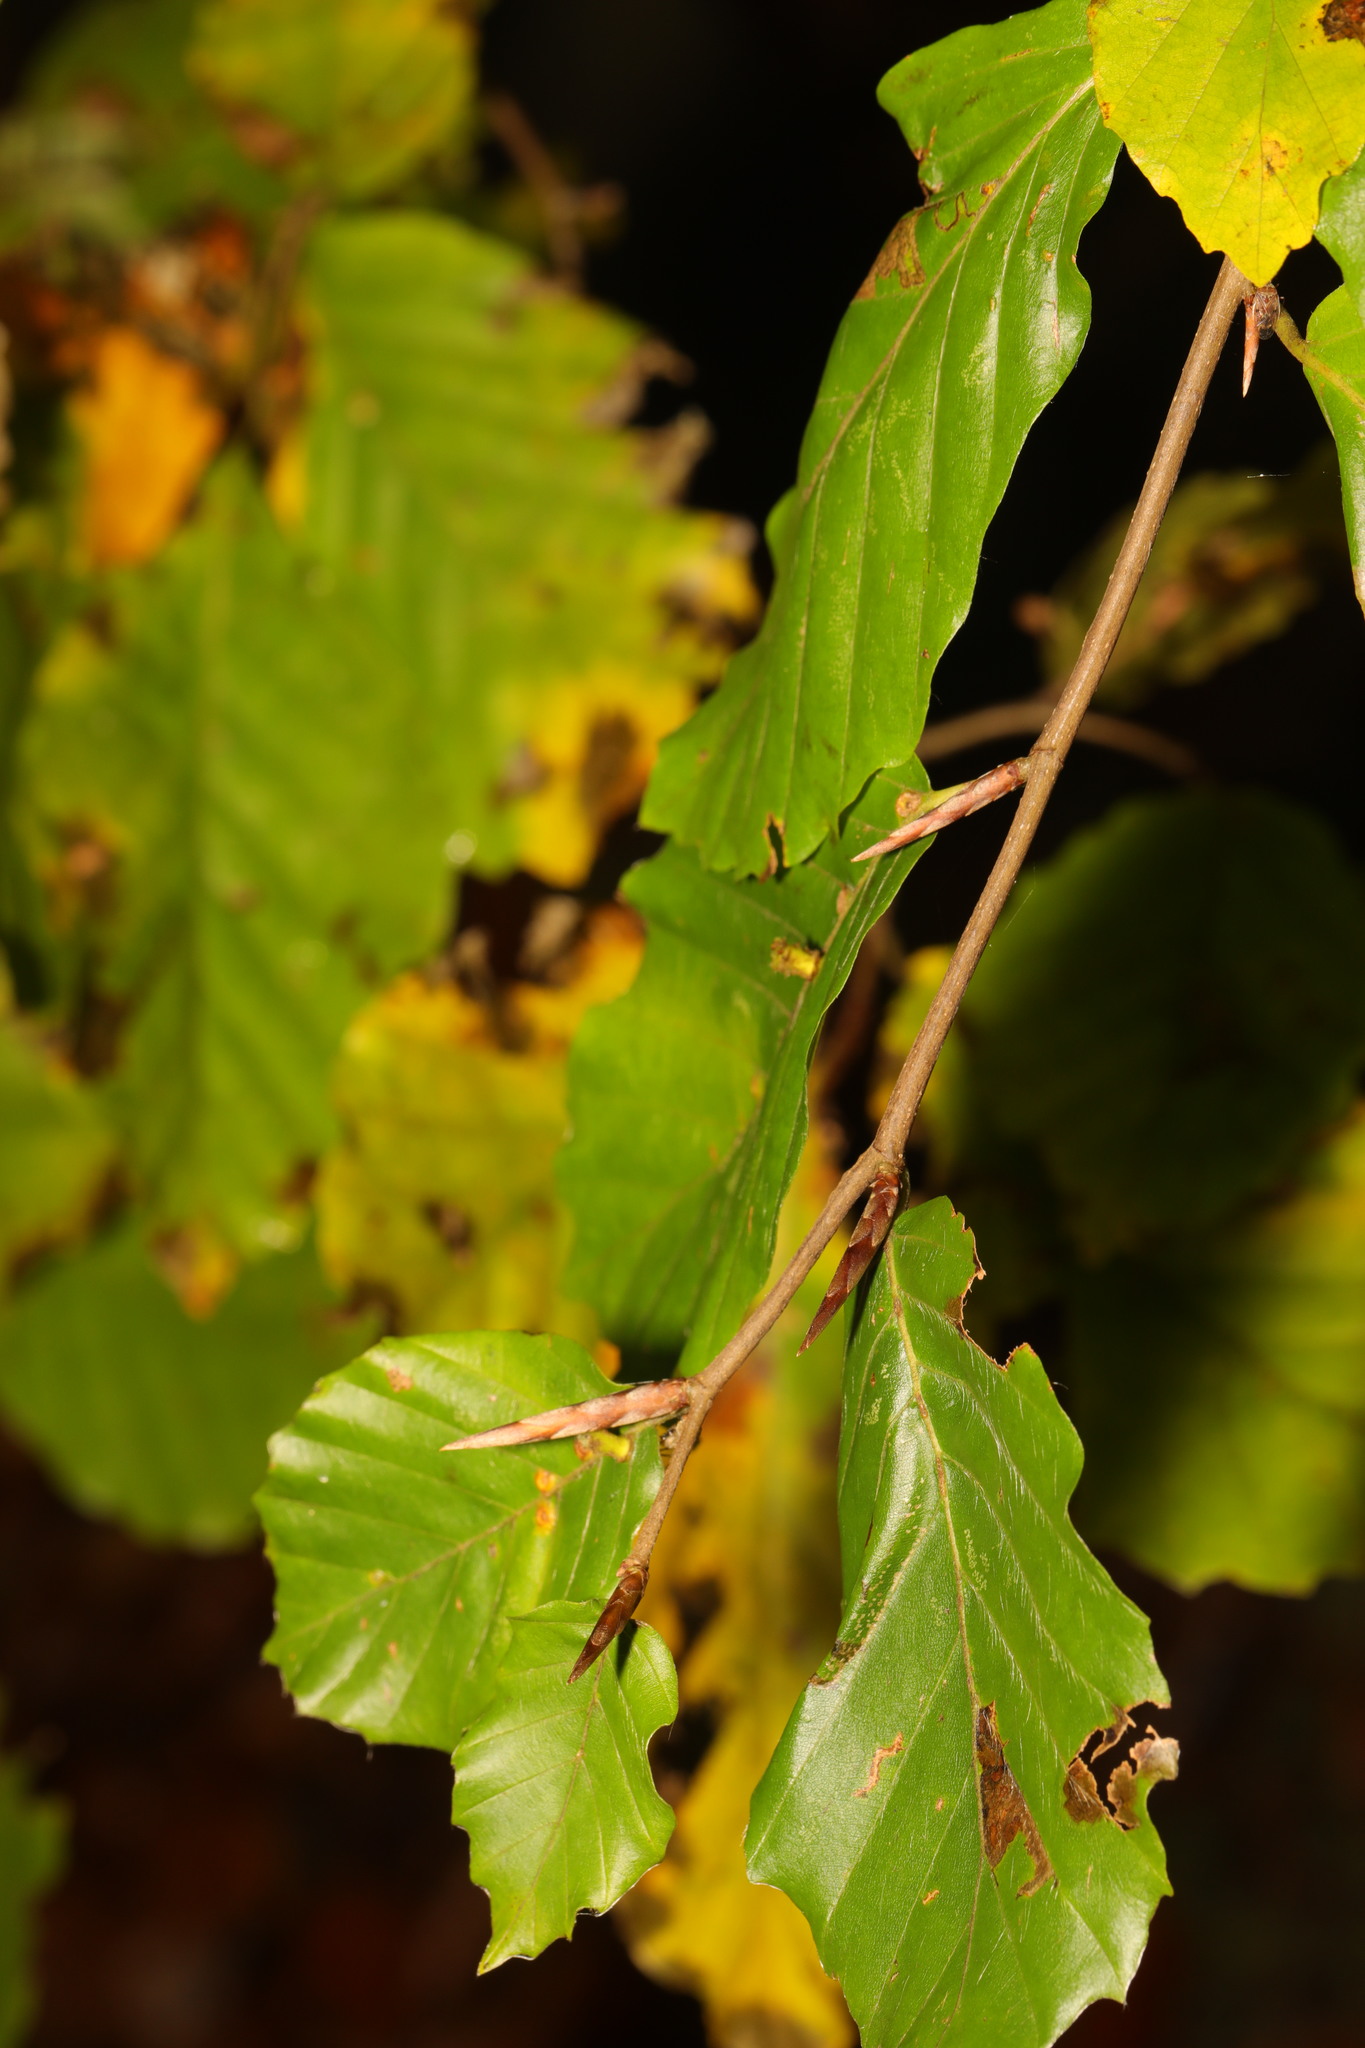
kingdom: Plantae
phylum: Tracheophyta
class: Magnoliopsida
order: Fagales
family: Fagaceae
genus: Fagus
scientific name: Fagus sylvatica
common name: Beech
